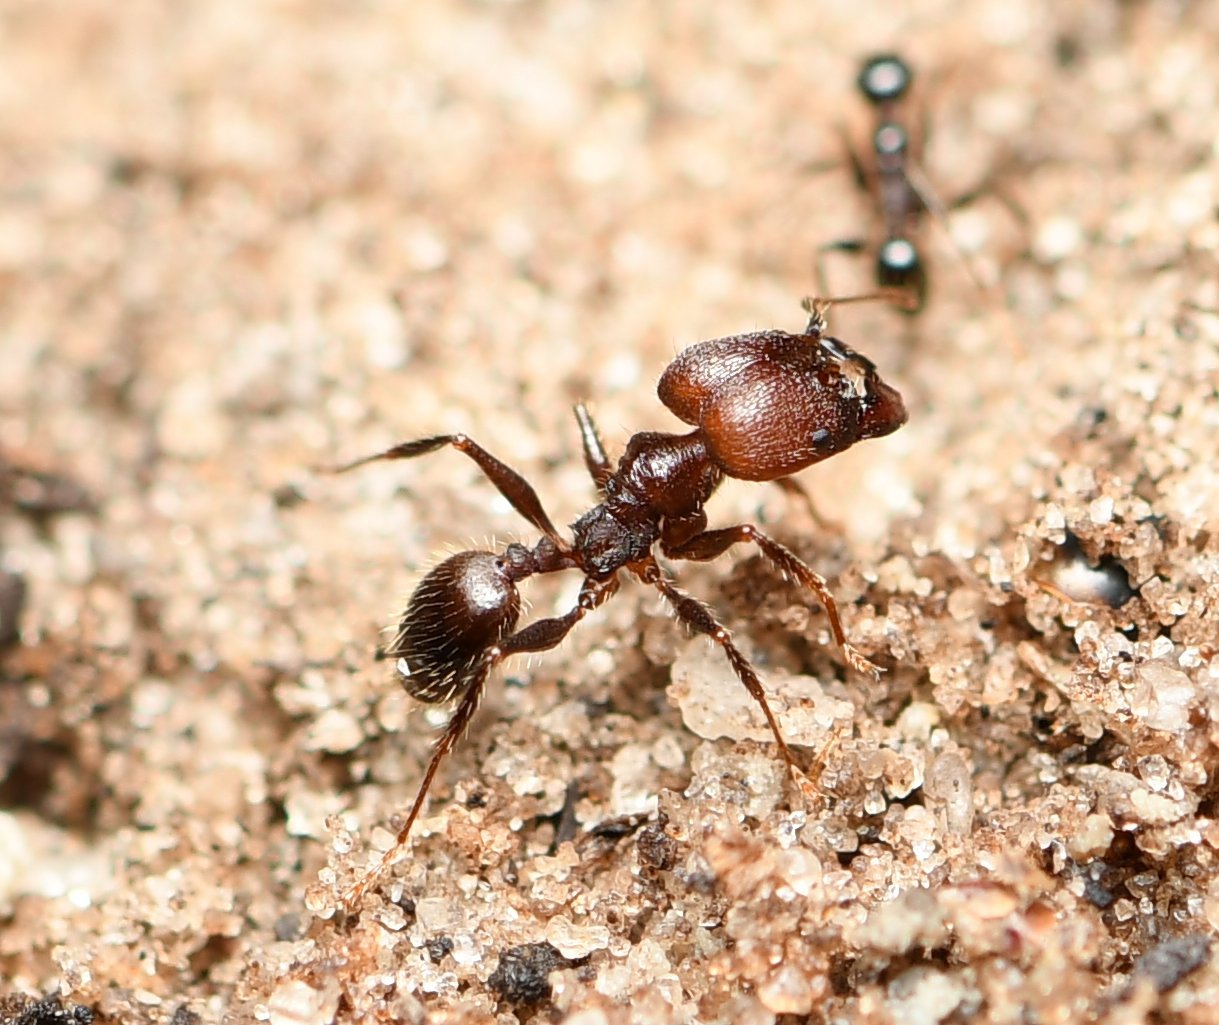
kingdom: Animalia
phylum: Arthropoda
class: Insecta
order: Hymenoptera
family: Formicidae
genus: Pheidole
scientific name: Pheidole obscurithorax
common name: Obscure big-headed ant
